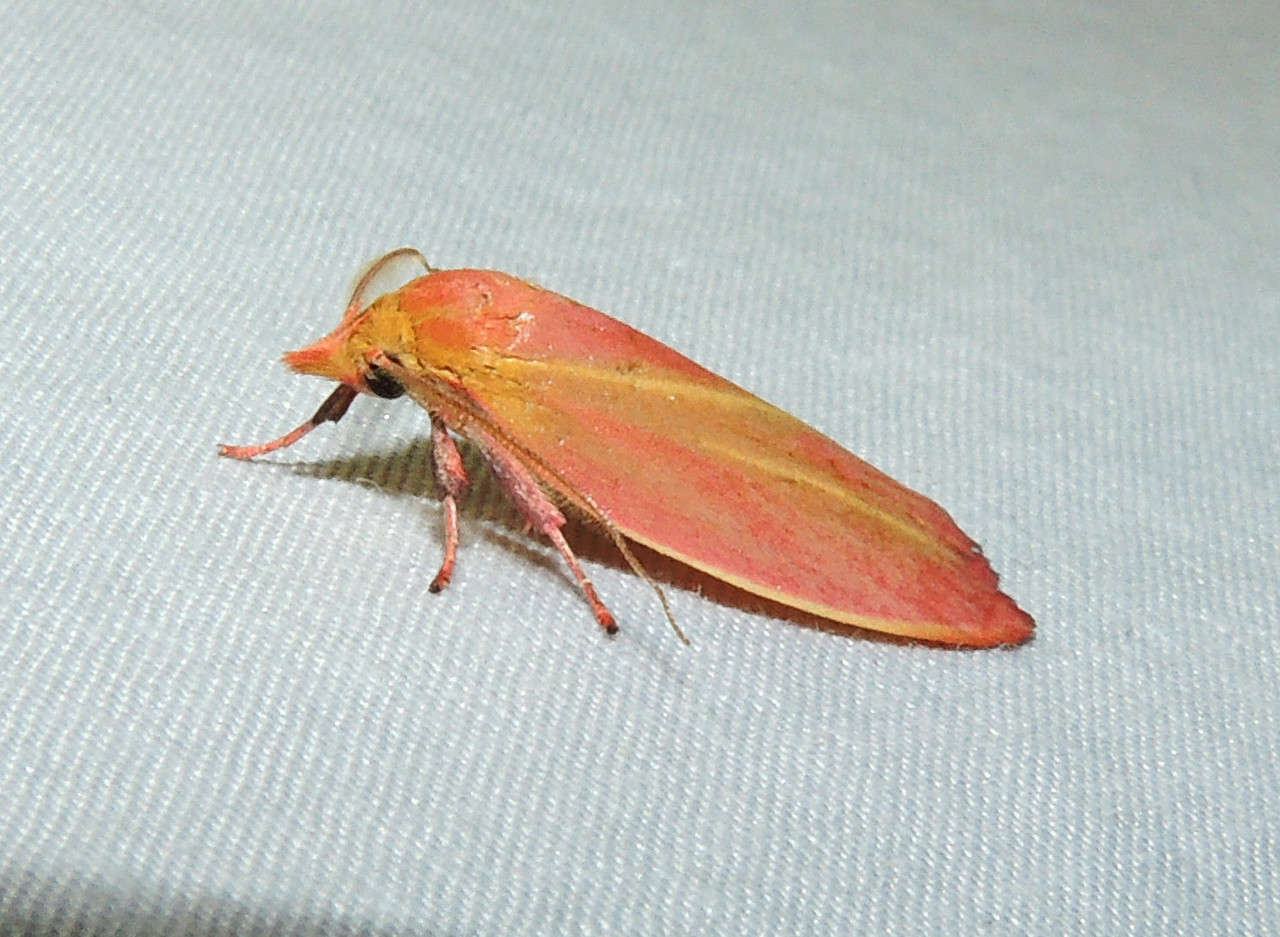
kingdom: Animalia
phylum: Arthropoda
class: Insecta
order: Lepidoptera
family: Oecophoridae
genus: Wingia
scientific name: Wingia lambertella
